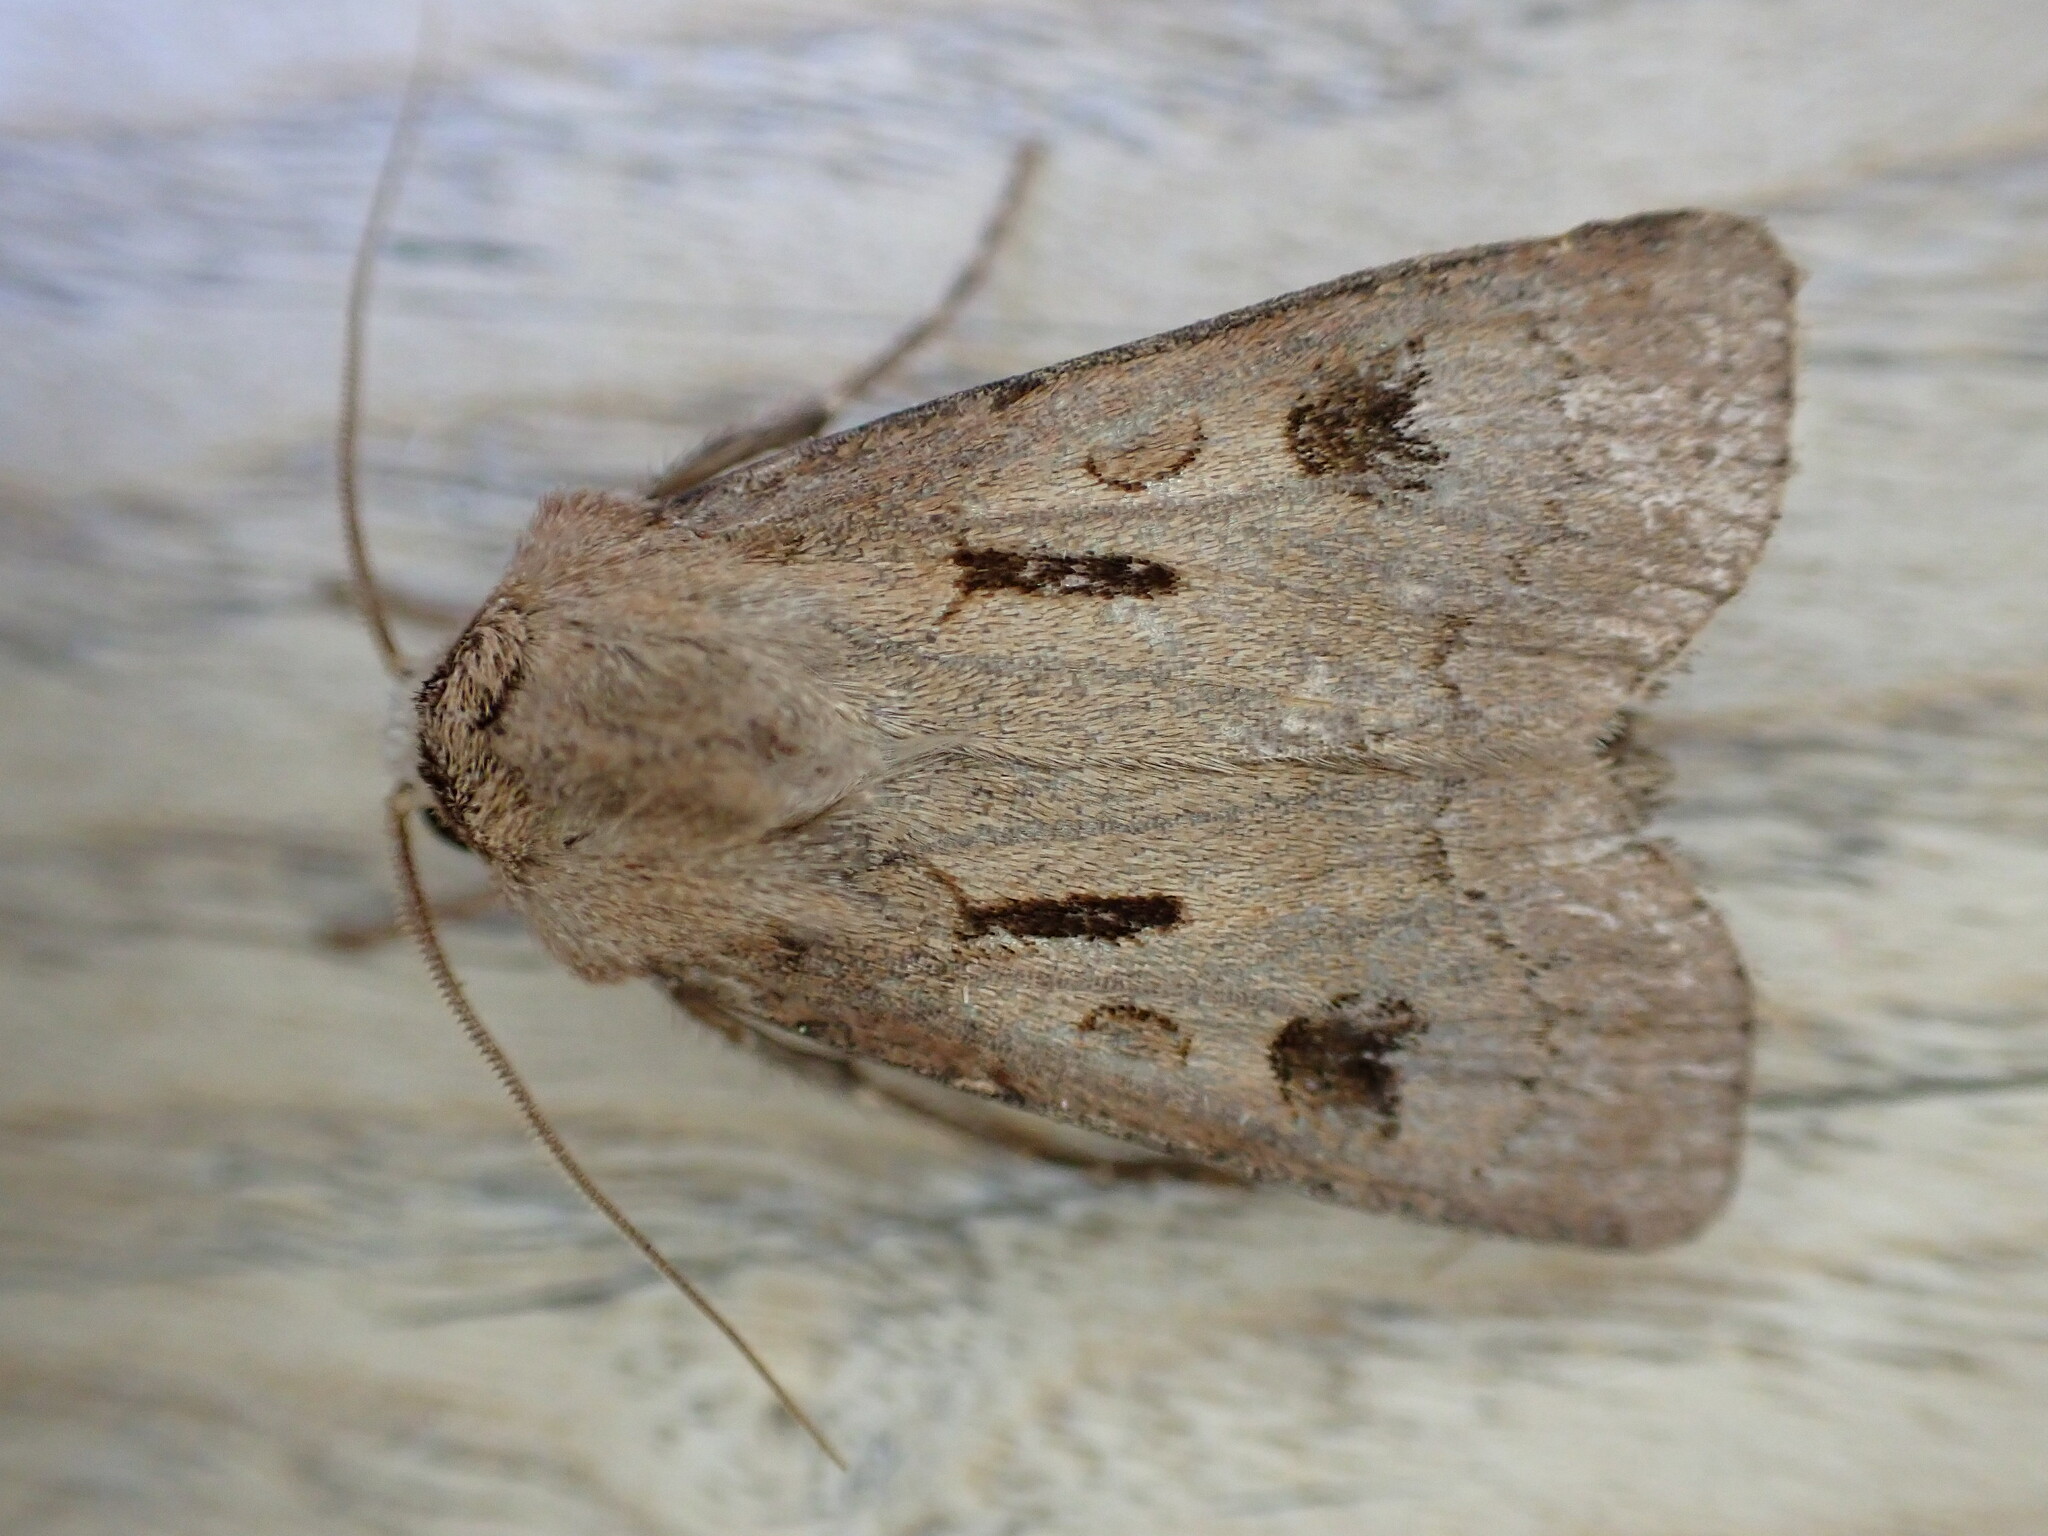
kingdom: Animalia
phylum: Arthropoda
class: Insecta
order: Lepidoptera
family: Noctuidae
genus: Agrotis
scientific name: Agrotis exclamationis
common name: Heart and dart
